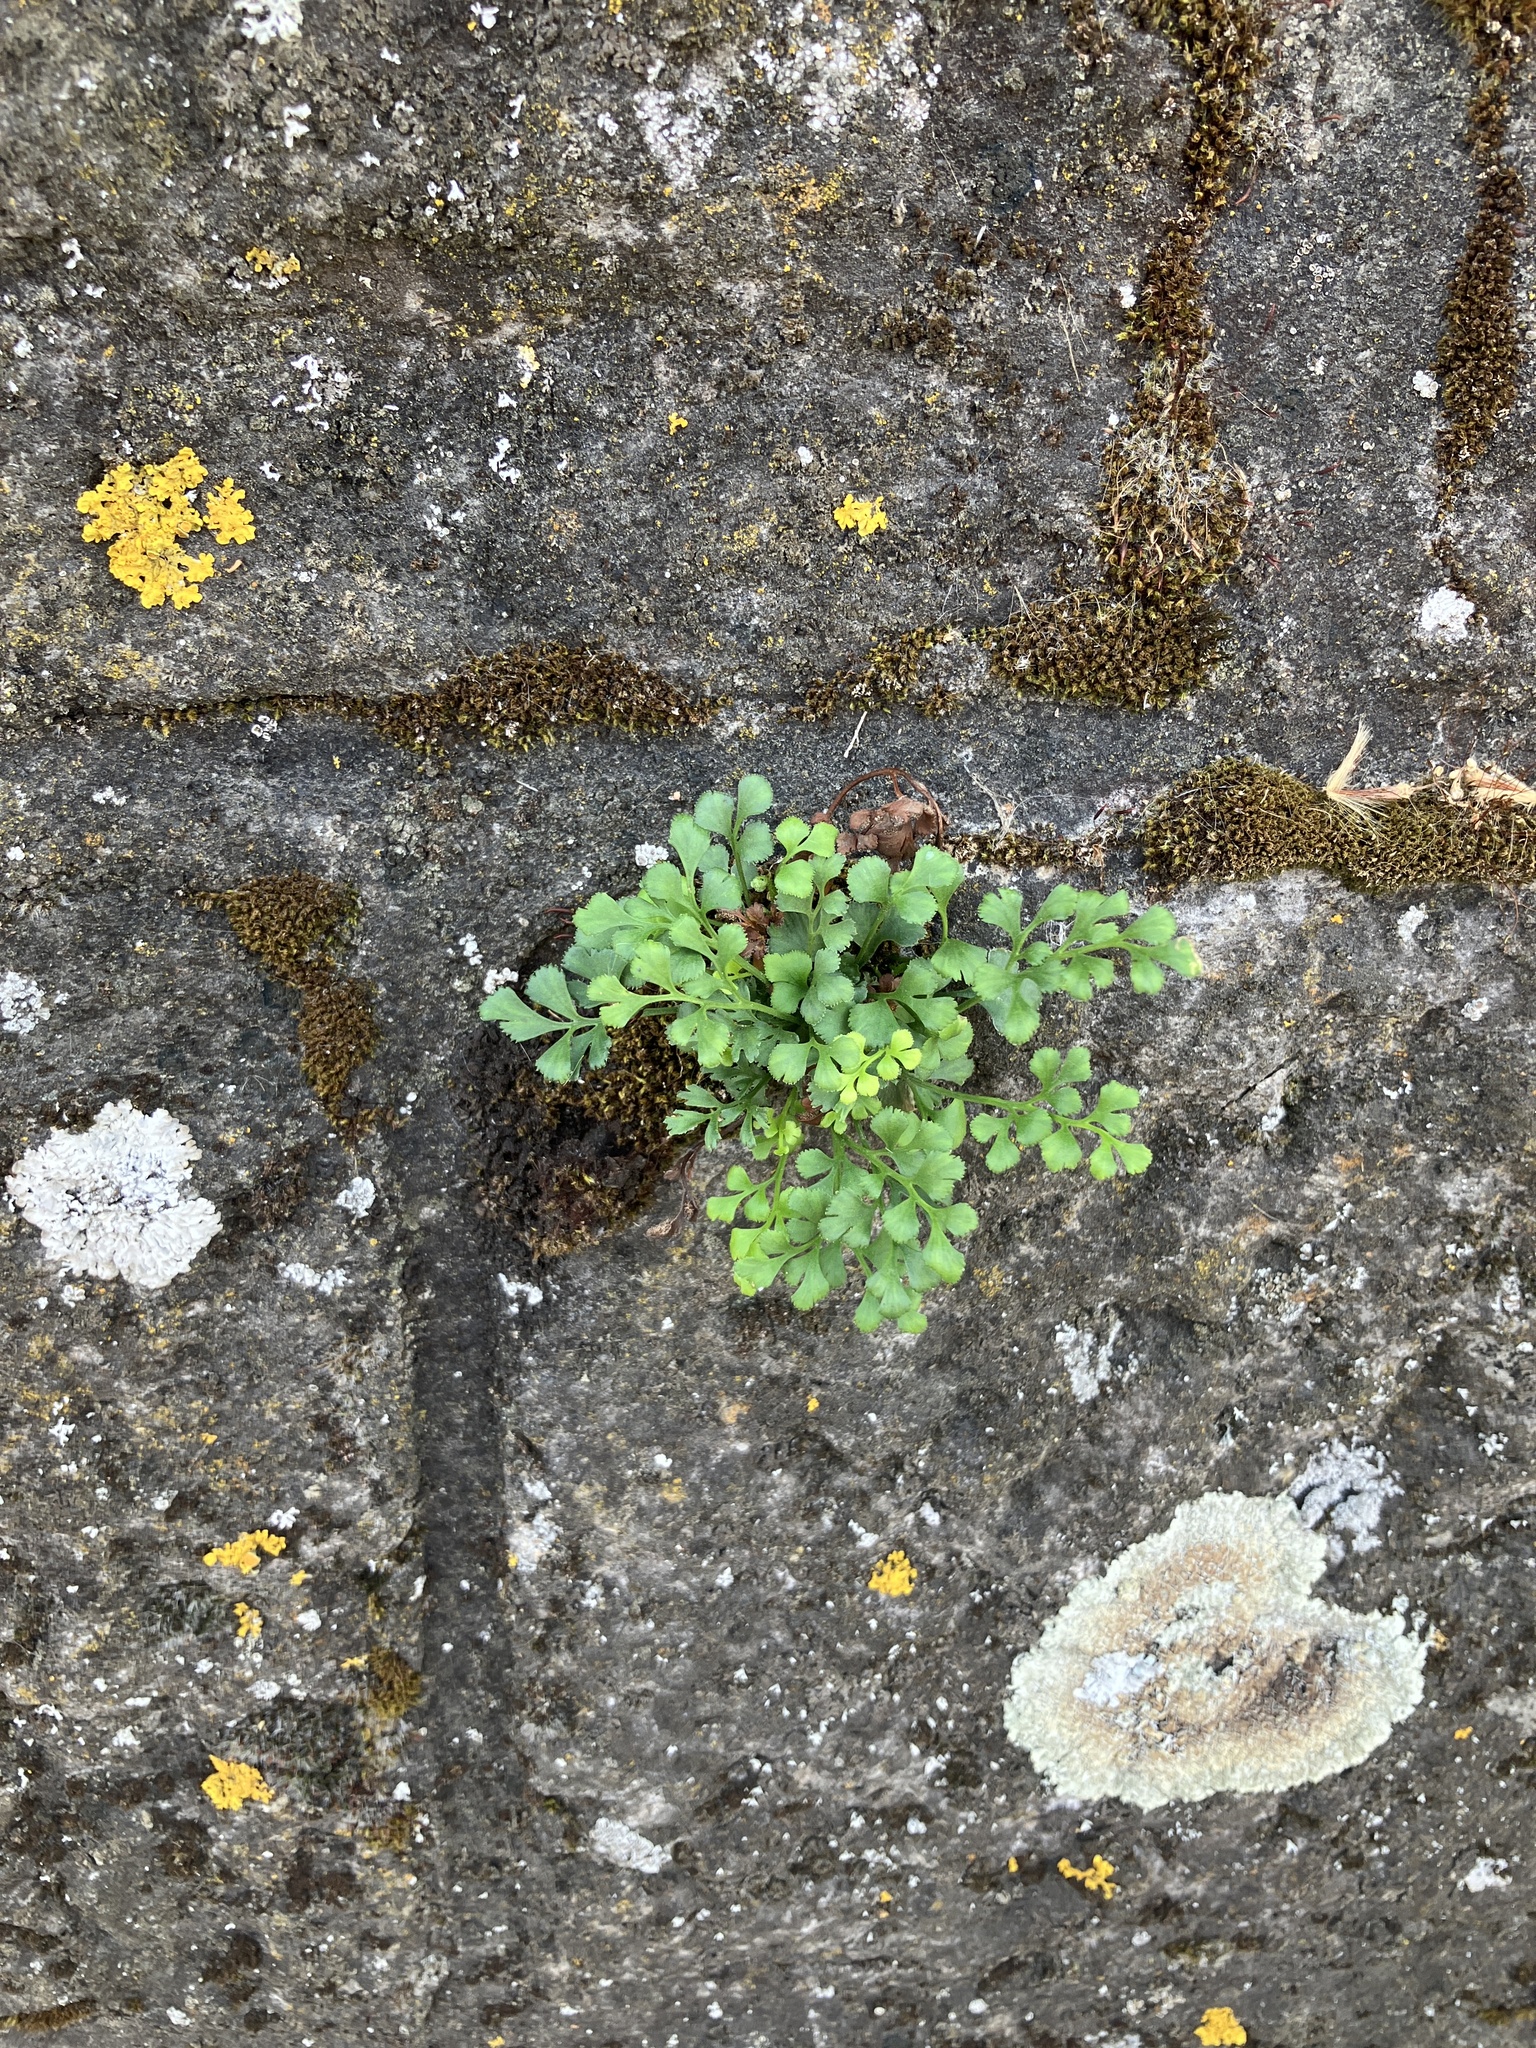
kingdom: Plantae
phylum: Tracheophyta
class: Polypodiopsida
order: Polypodiales
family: Aspleniaceae
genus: Asplenium
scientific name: Asplenium ruta-muraria
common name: Wall-rue
